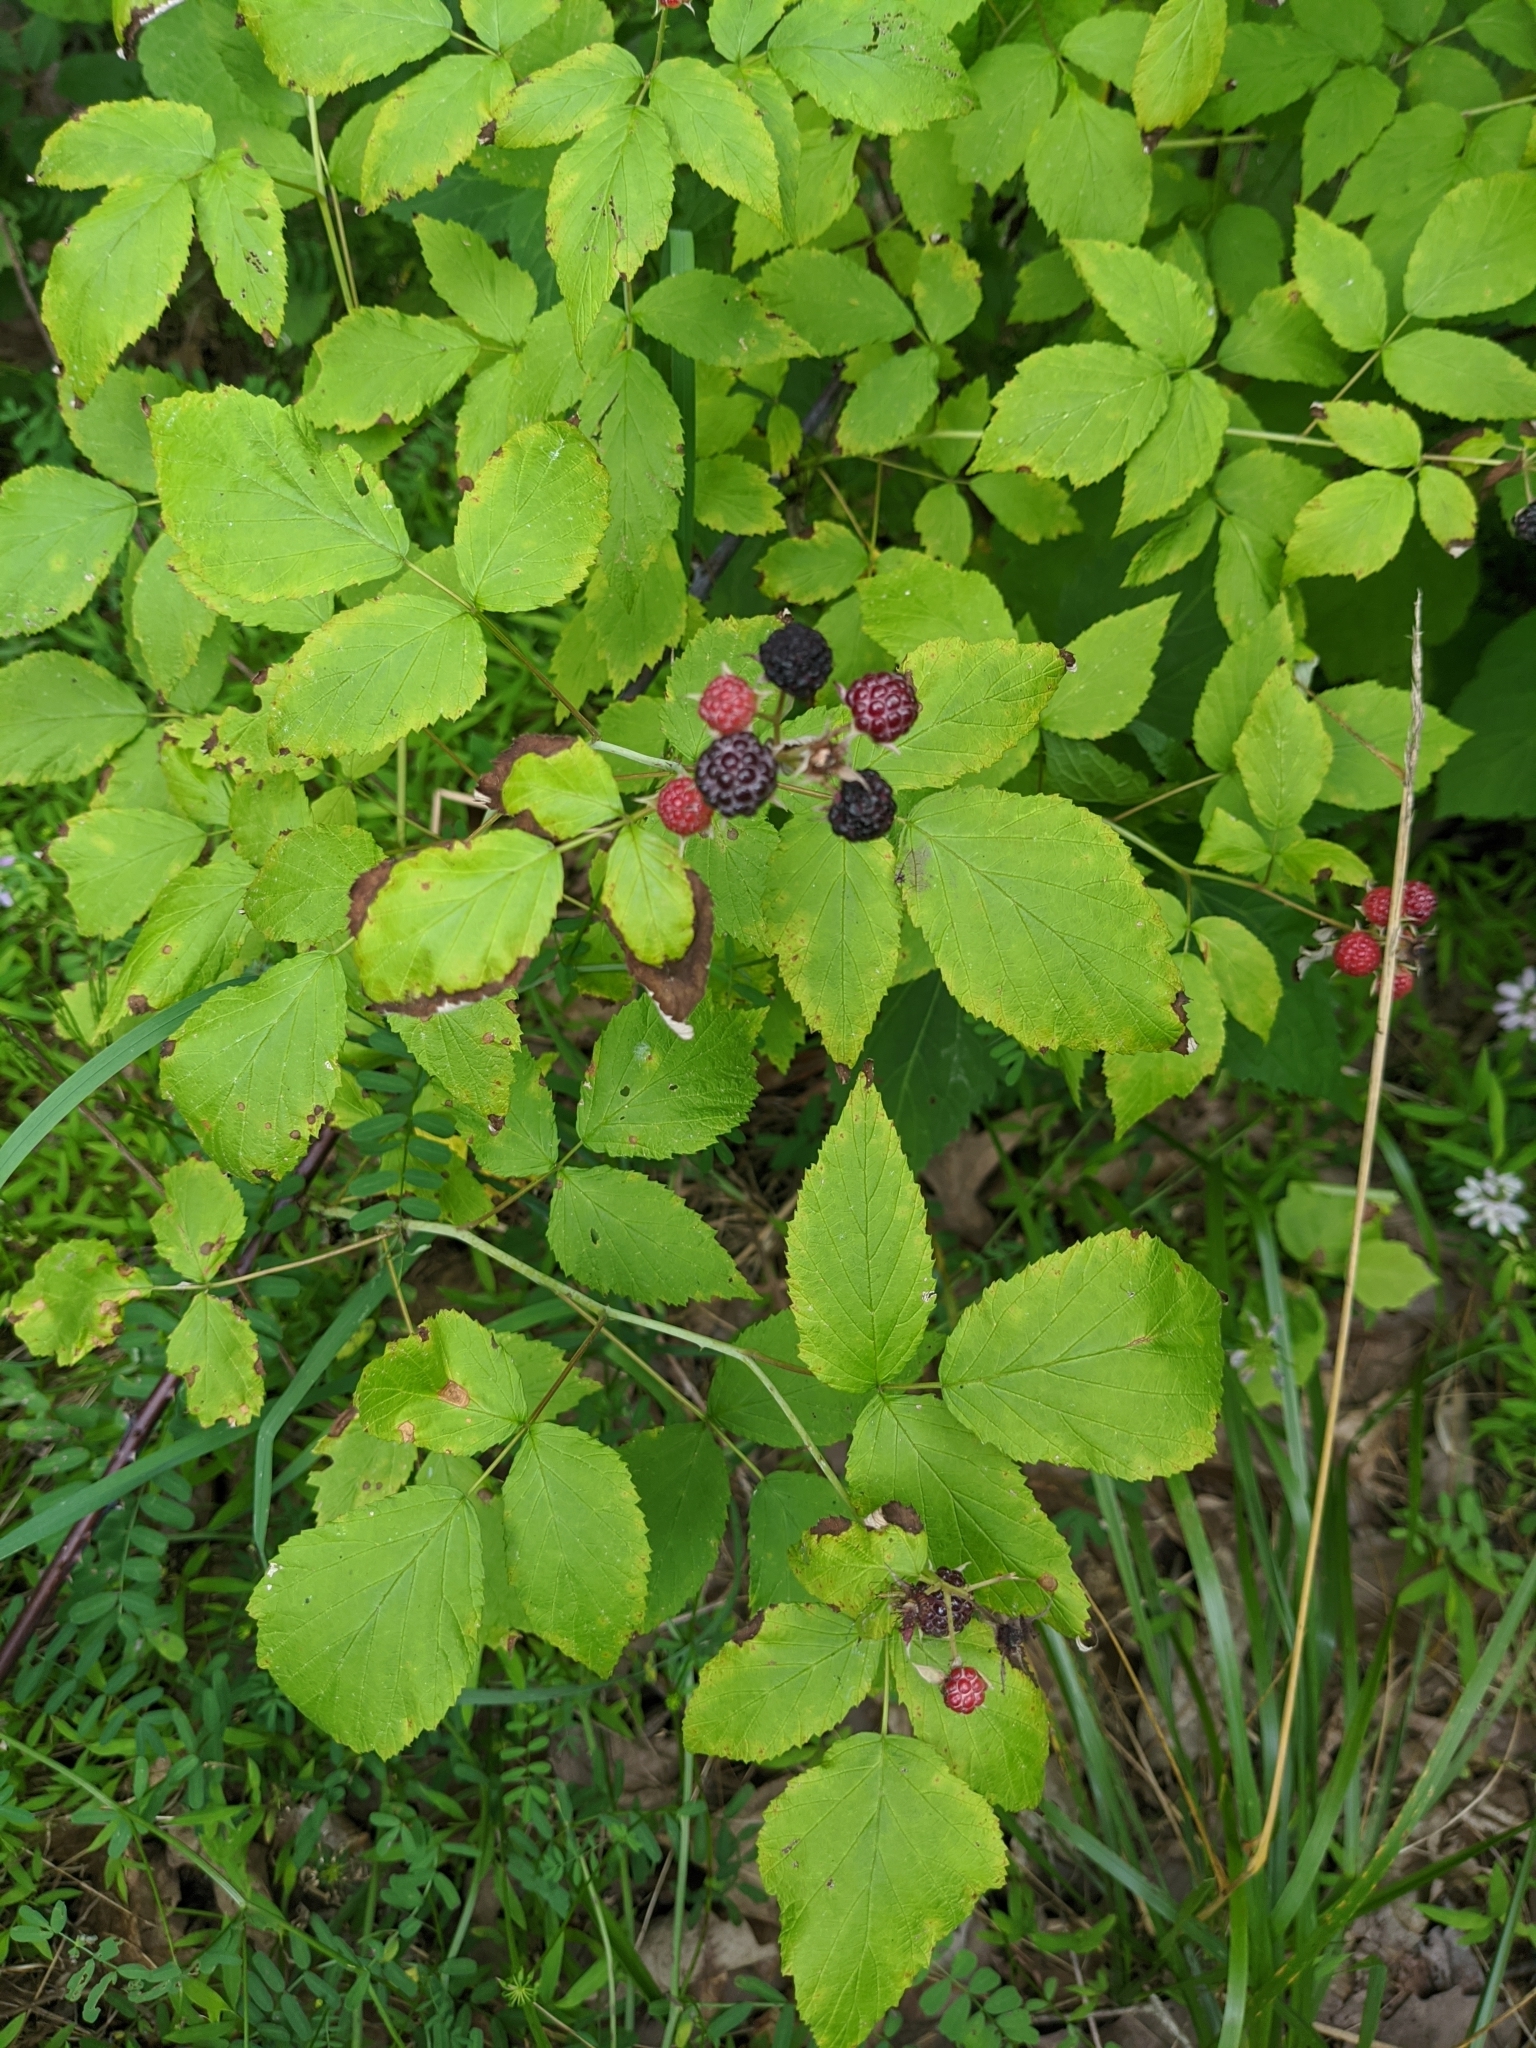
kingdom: Plantae
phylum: Tracheophyta
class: Magnoliopsida
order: Rosales
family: Rosaceae
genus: Rubus
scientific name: Rubus occidentalis
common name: Black raspberry
